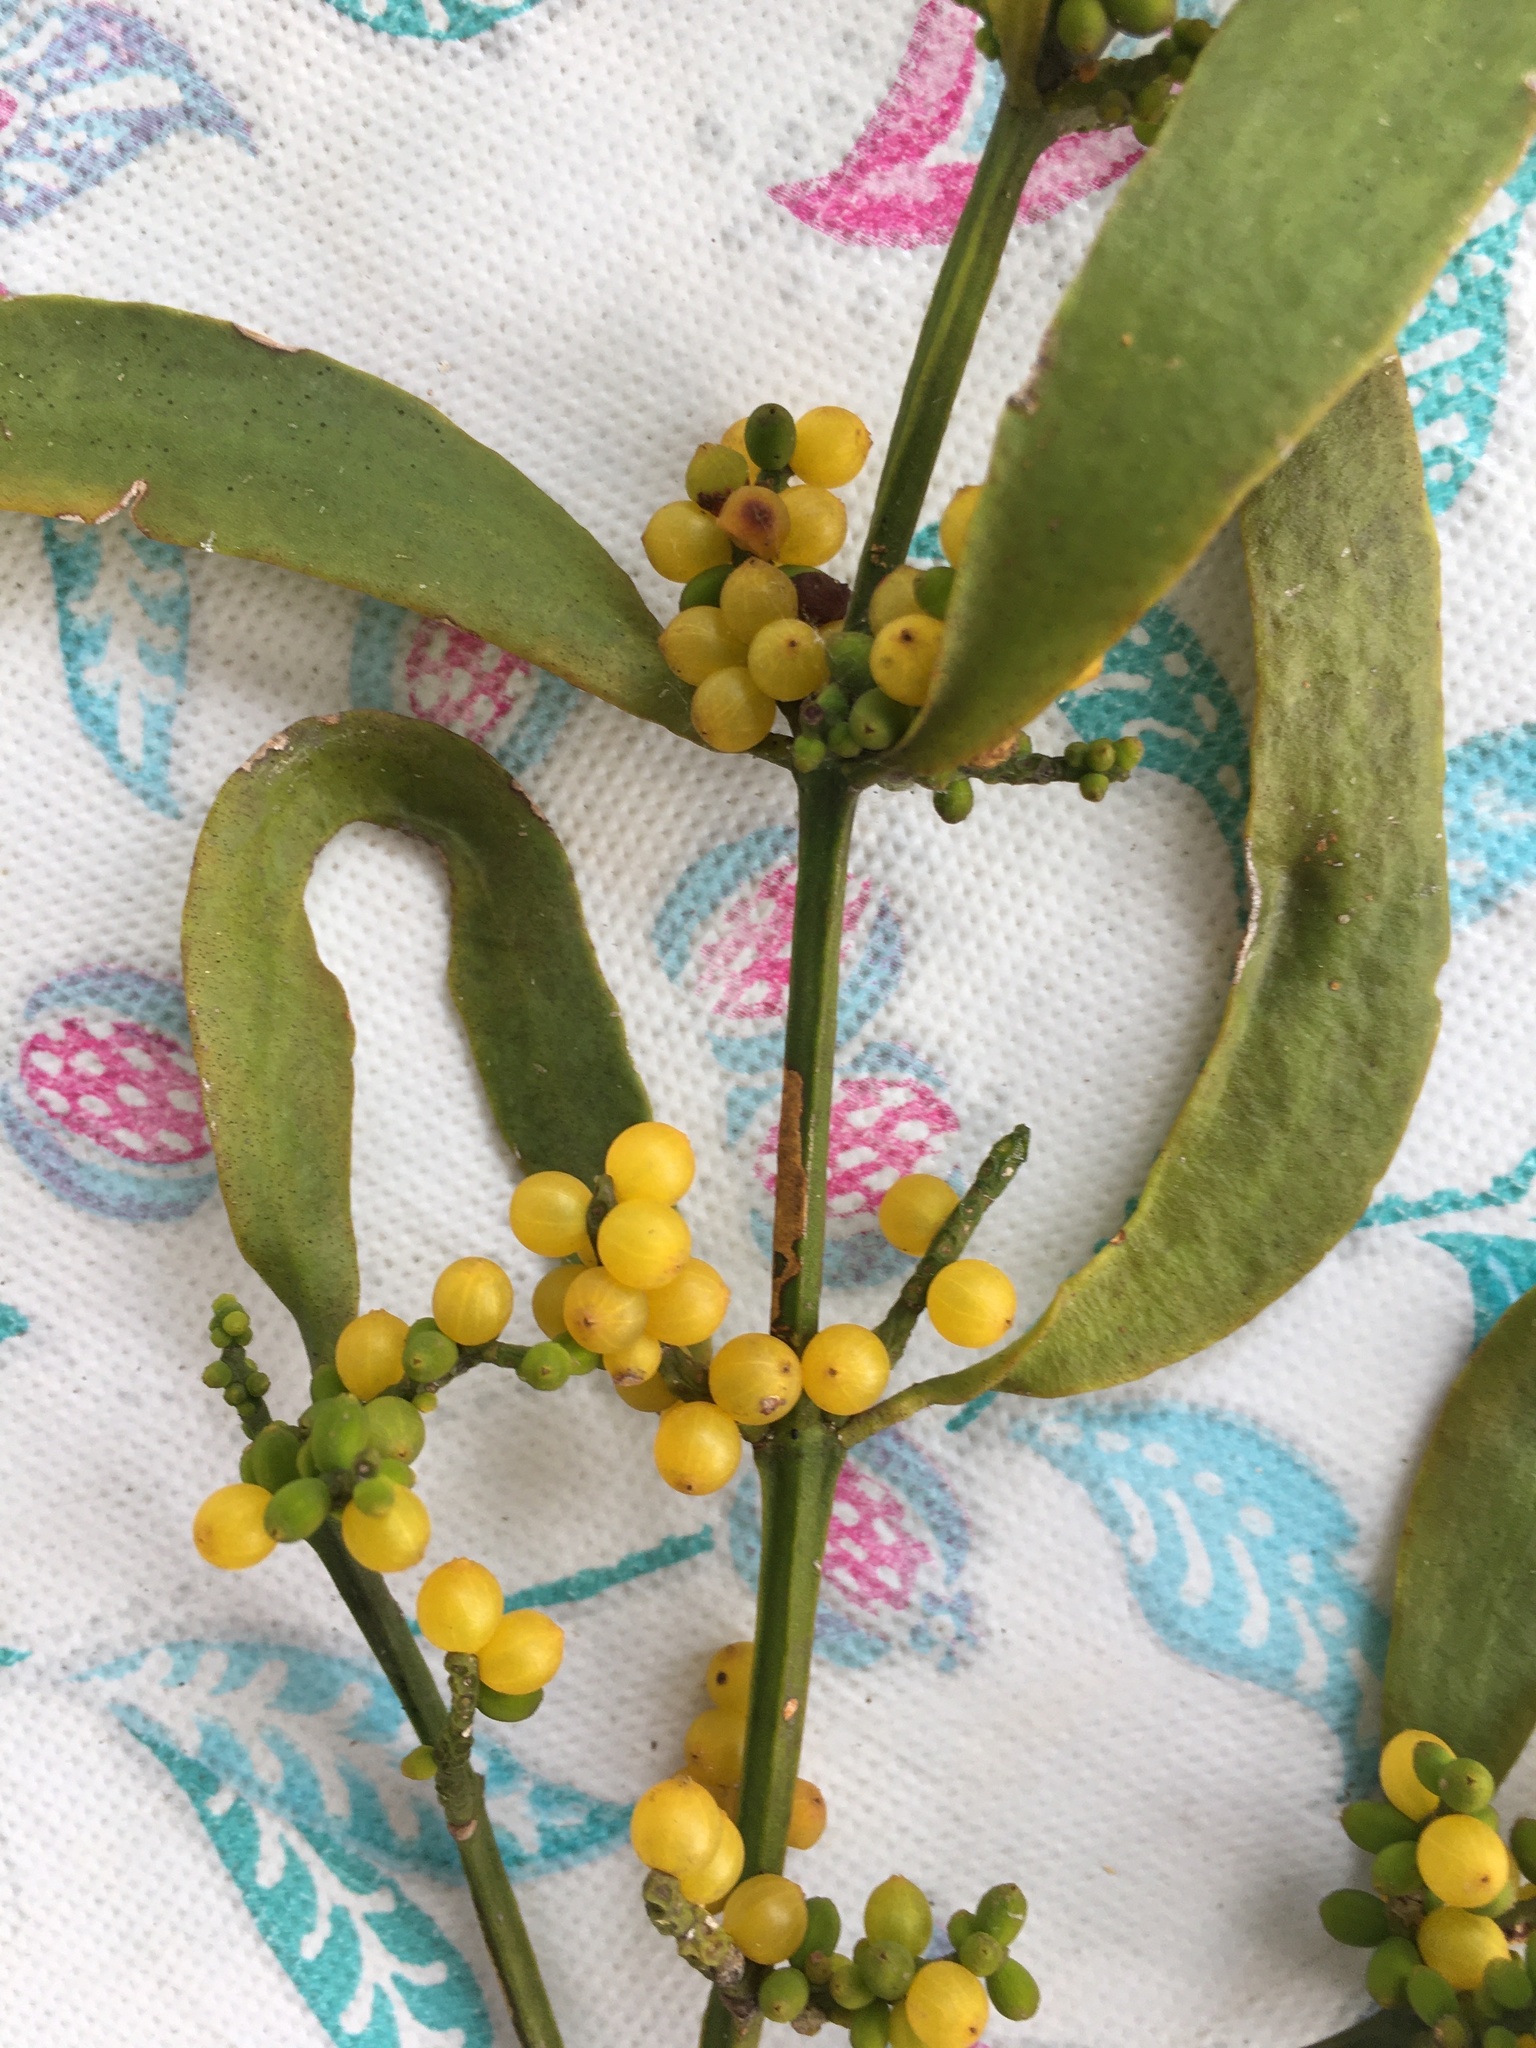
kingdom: Plantae
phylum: Tracheophyta
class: Magnoliopsida
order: Santalales
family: Viscaceae
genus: Phoradendron
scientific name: Phoradendron quadrangulare
